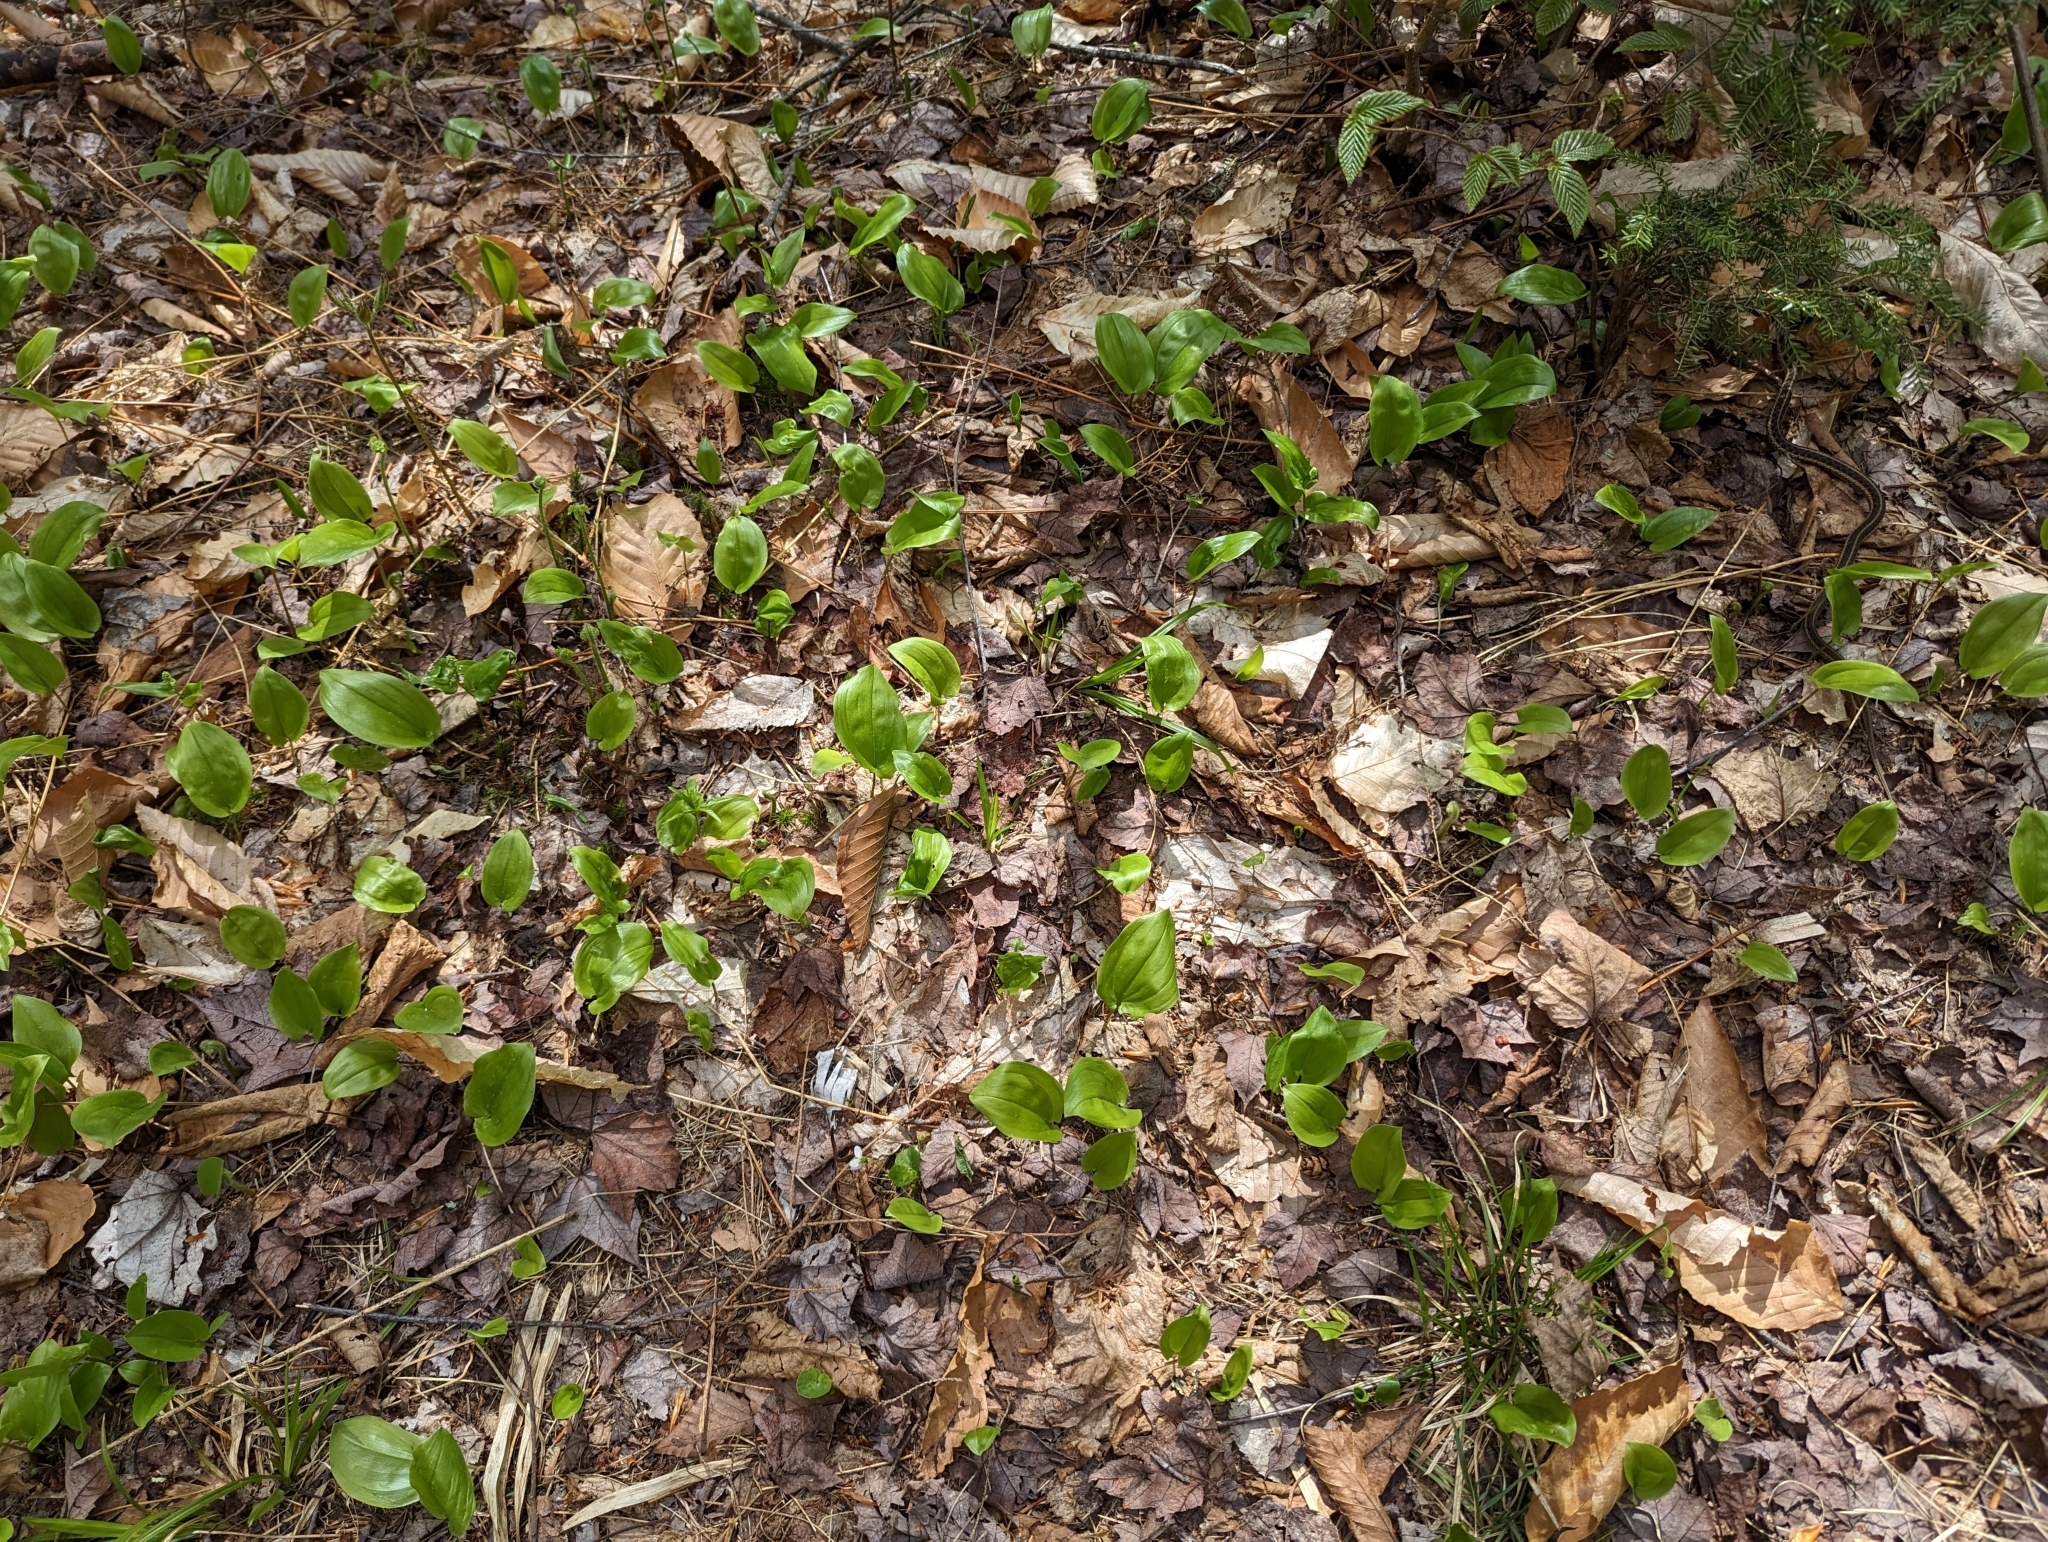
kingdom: Plantae
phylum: Tracheophyta
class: Liliopsida
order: Asparagales
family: Asparagaceae
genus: Maianthemum
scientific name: Maianthemum canadense
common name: False lily-of-the-valley
